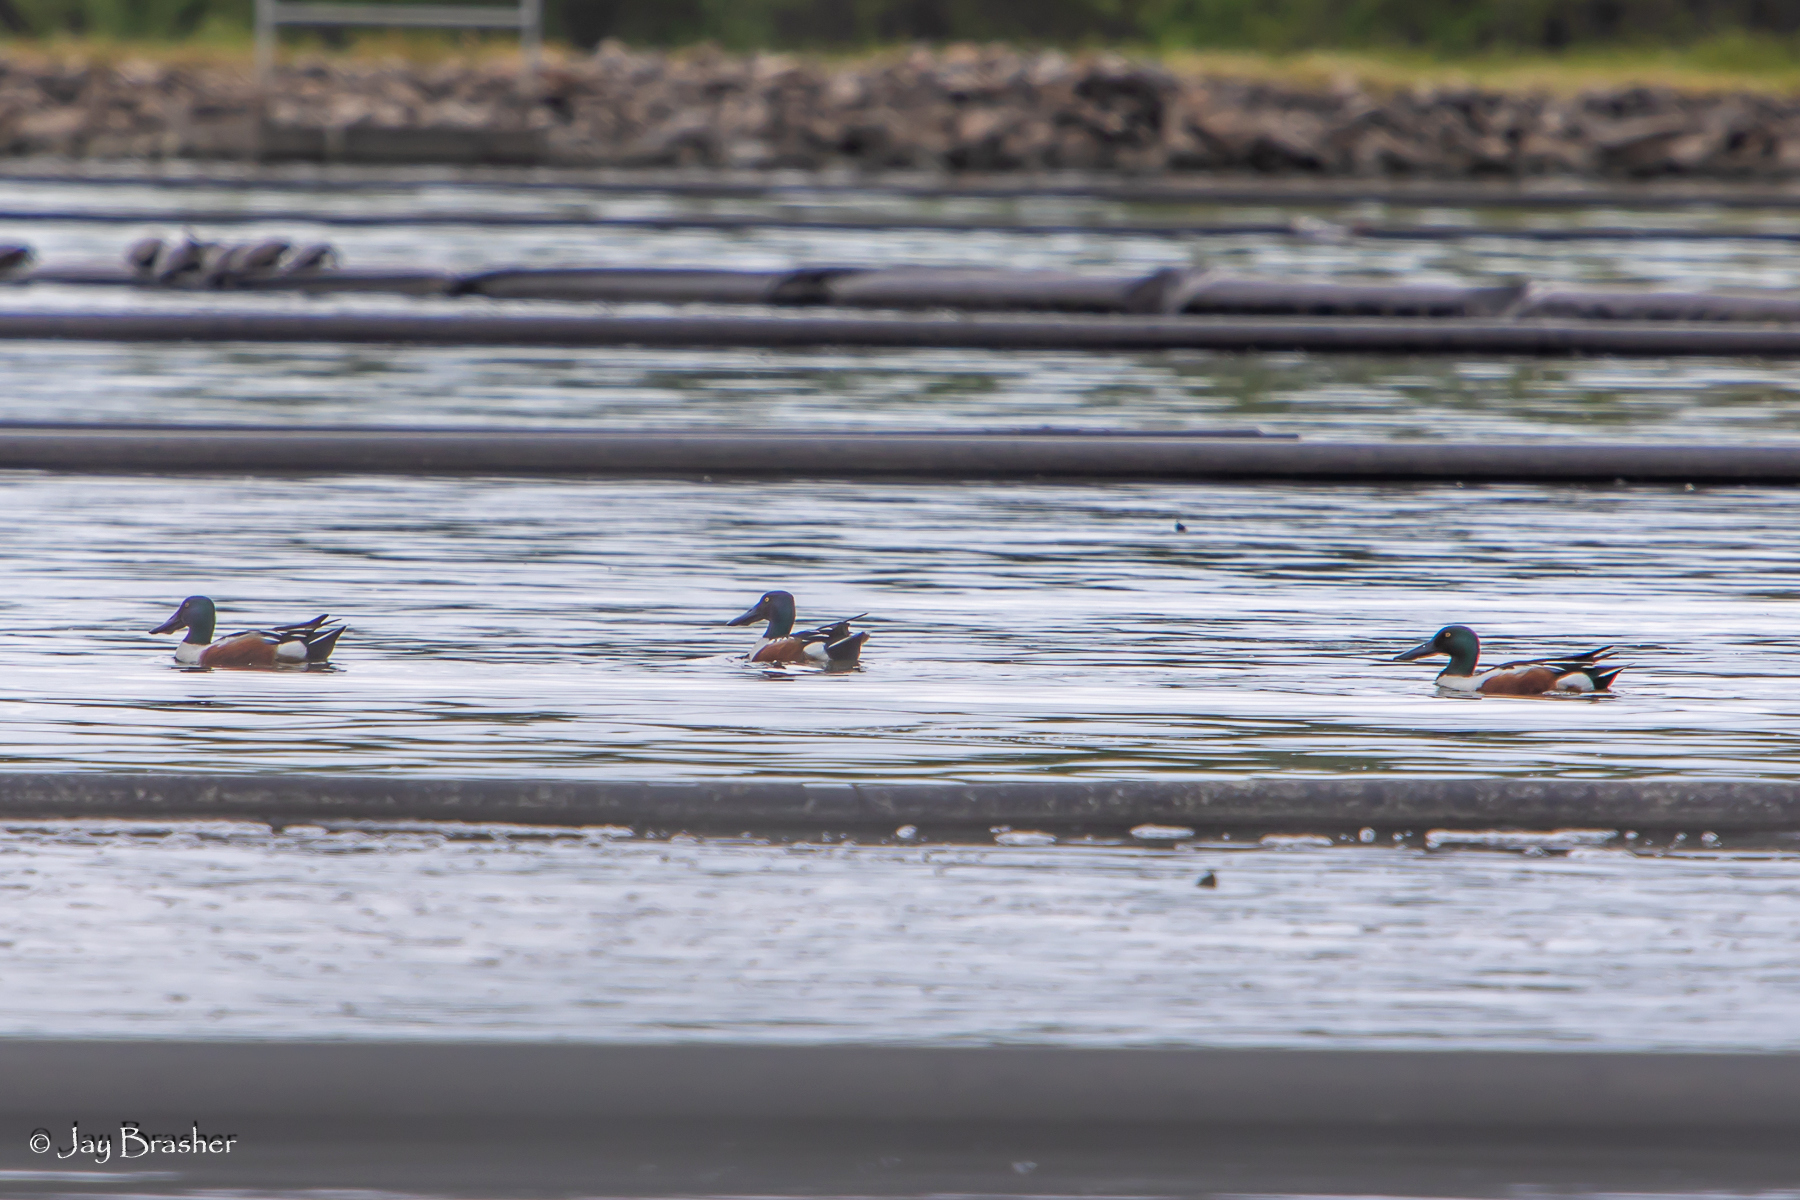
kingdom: Animalia
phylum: Chordata
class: Aves
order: Anseriformes
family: Anatidae
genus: Spatula
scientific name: Spatula clypeata
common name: Northern shoveler
